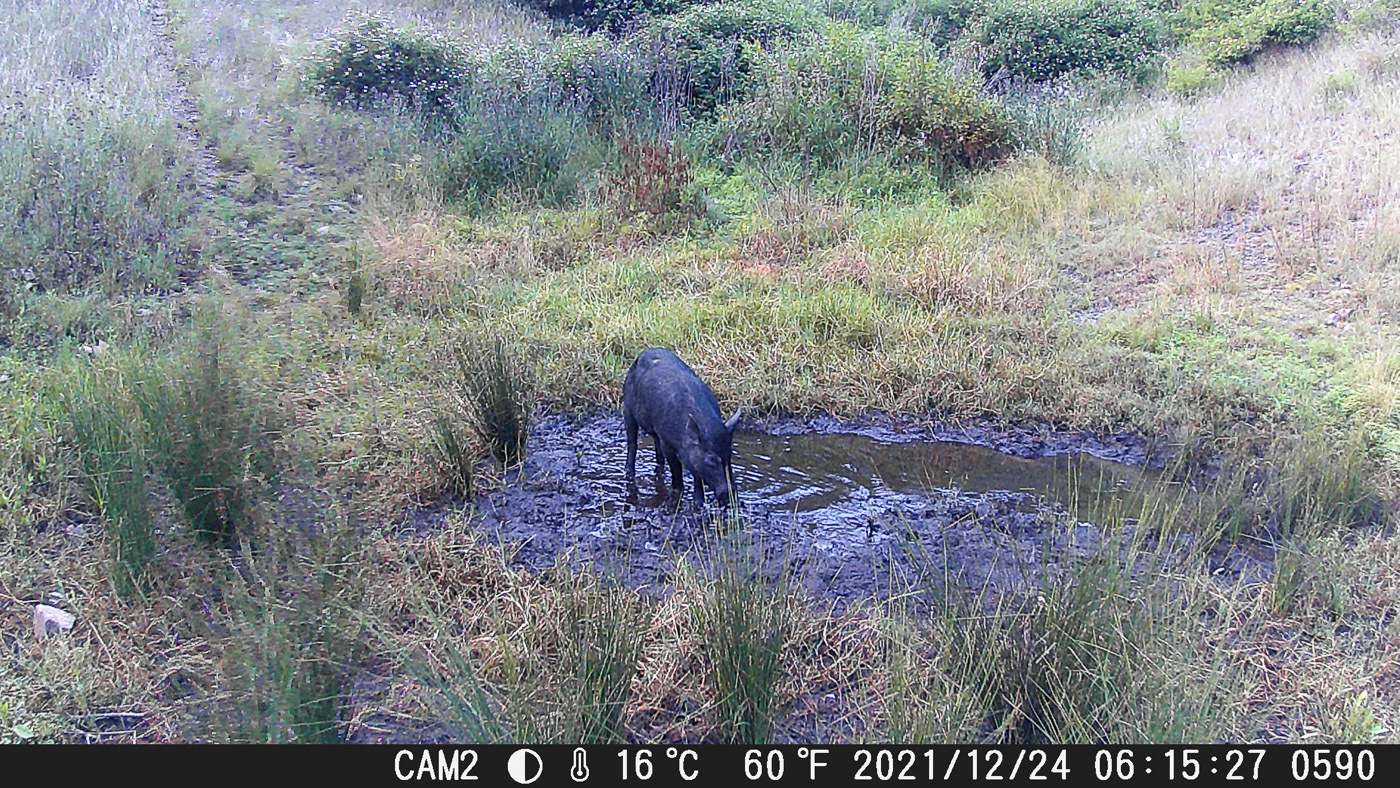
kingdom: Animalia
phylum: Chordata
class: Mammalia
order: Artiodactyla
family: Suidae
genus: Sus
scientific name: Sus scrofa
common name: Wild boar
